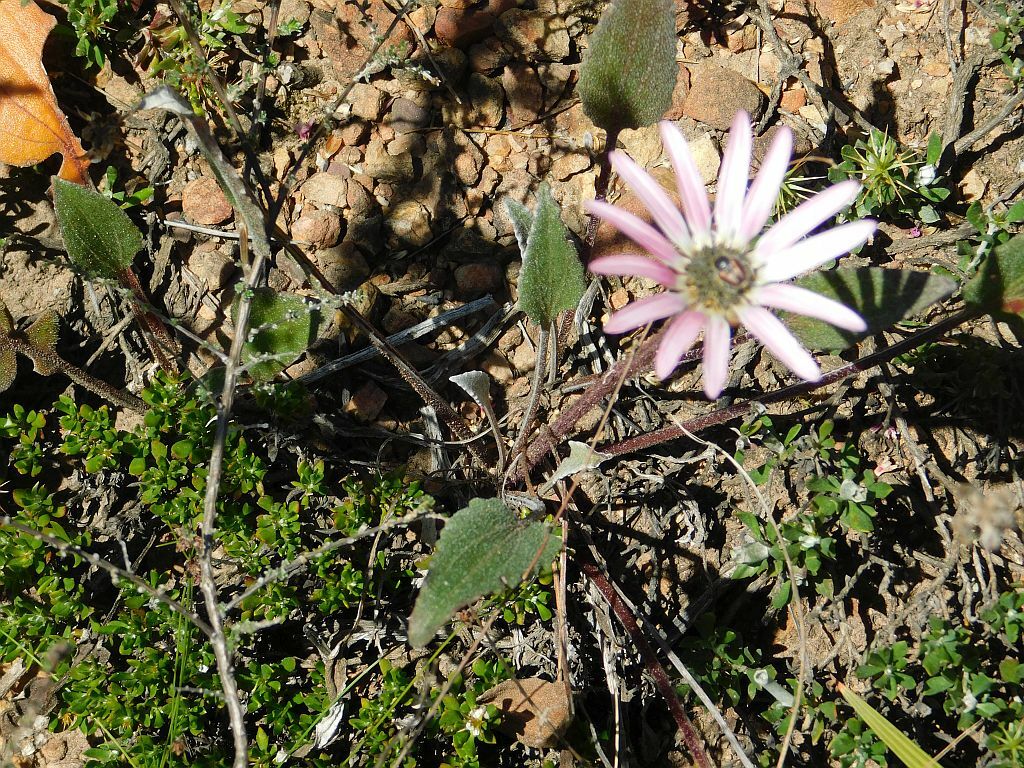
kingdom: Plantae
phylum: Tracheophyta
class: Magnoliopsida
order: Asterales
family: Asteraceae
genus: Arctotis
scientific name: Arctotis acaulis
